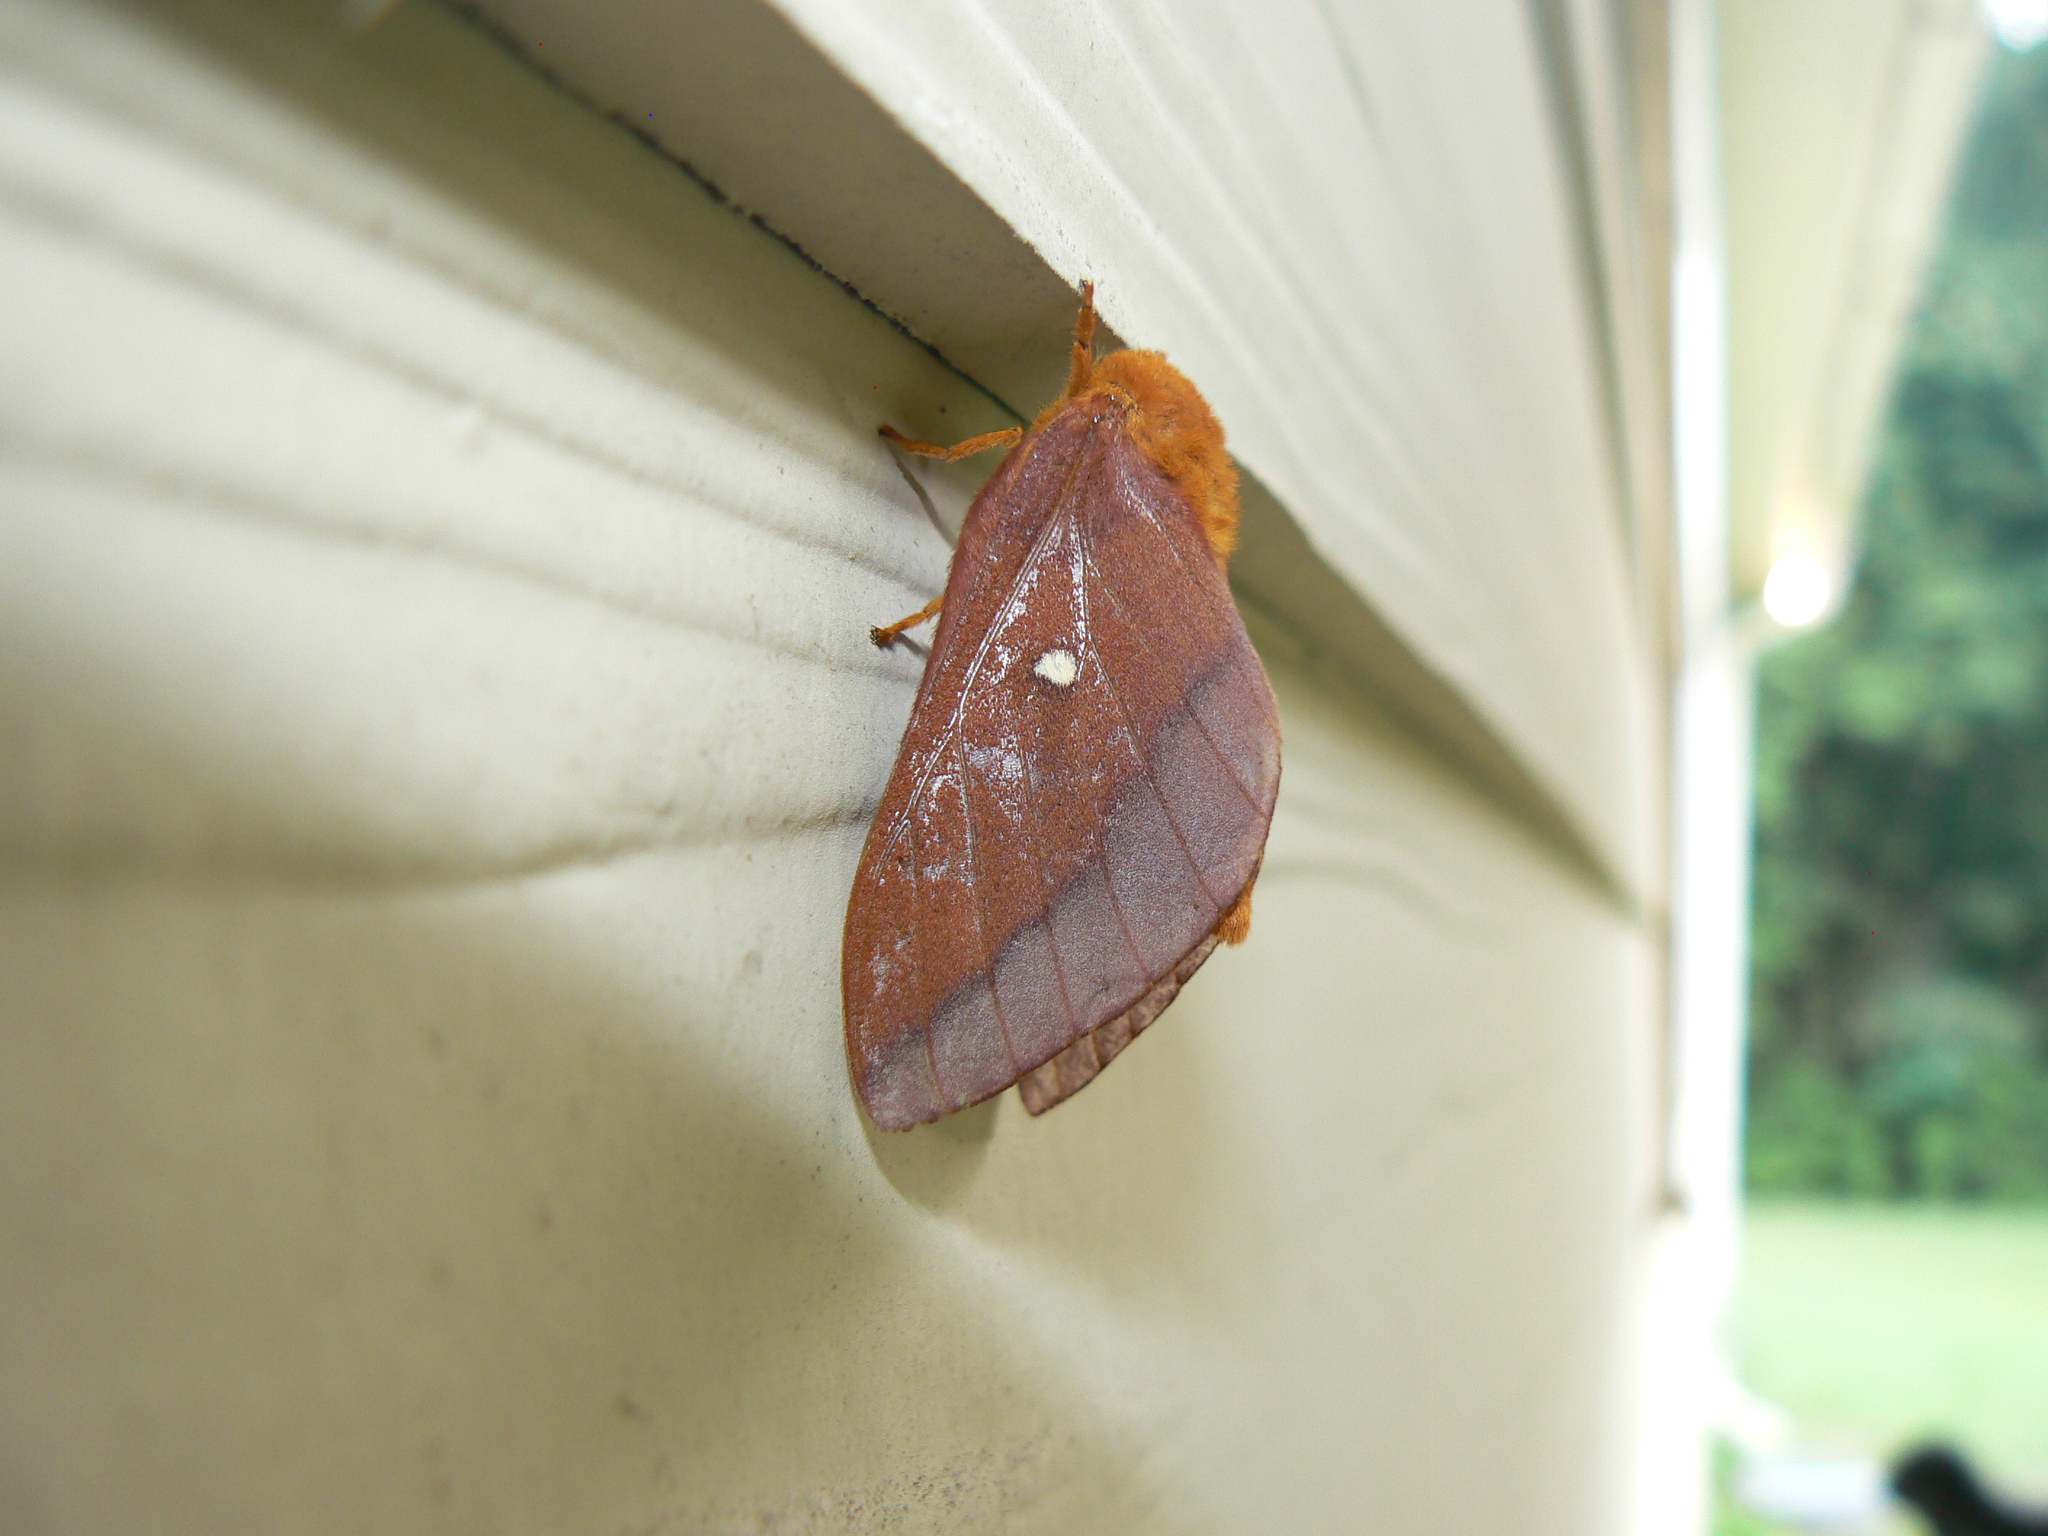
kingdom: Animalia
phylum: Arthropoda
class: Insecta
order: Lepidoptera
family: Saturniidae
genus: Anisota
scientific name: Anisota virginiensis
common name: Pink striped oakworm moth
